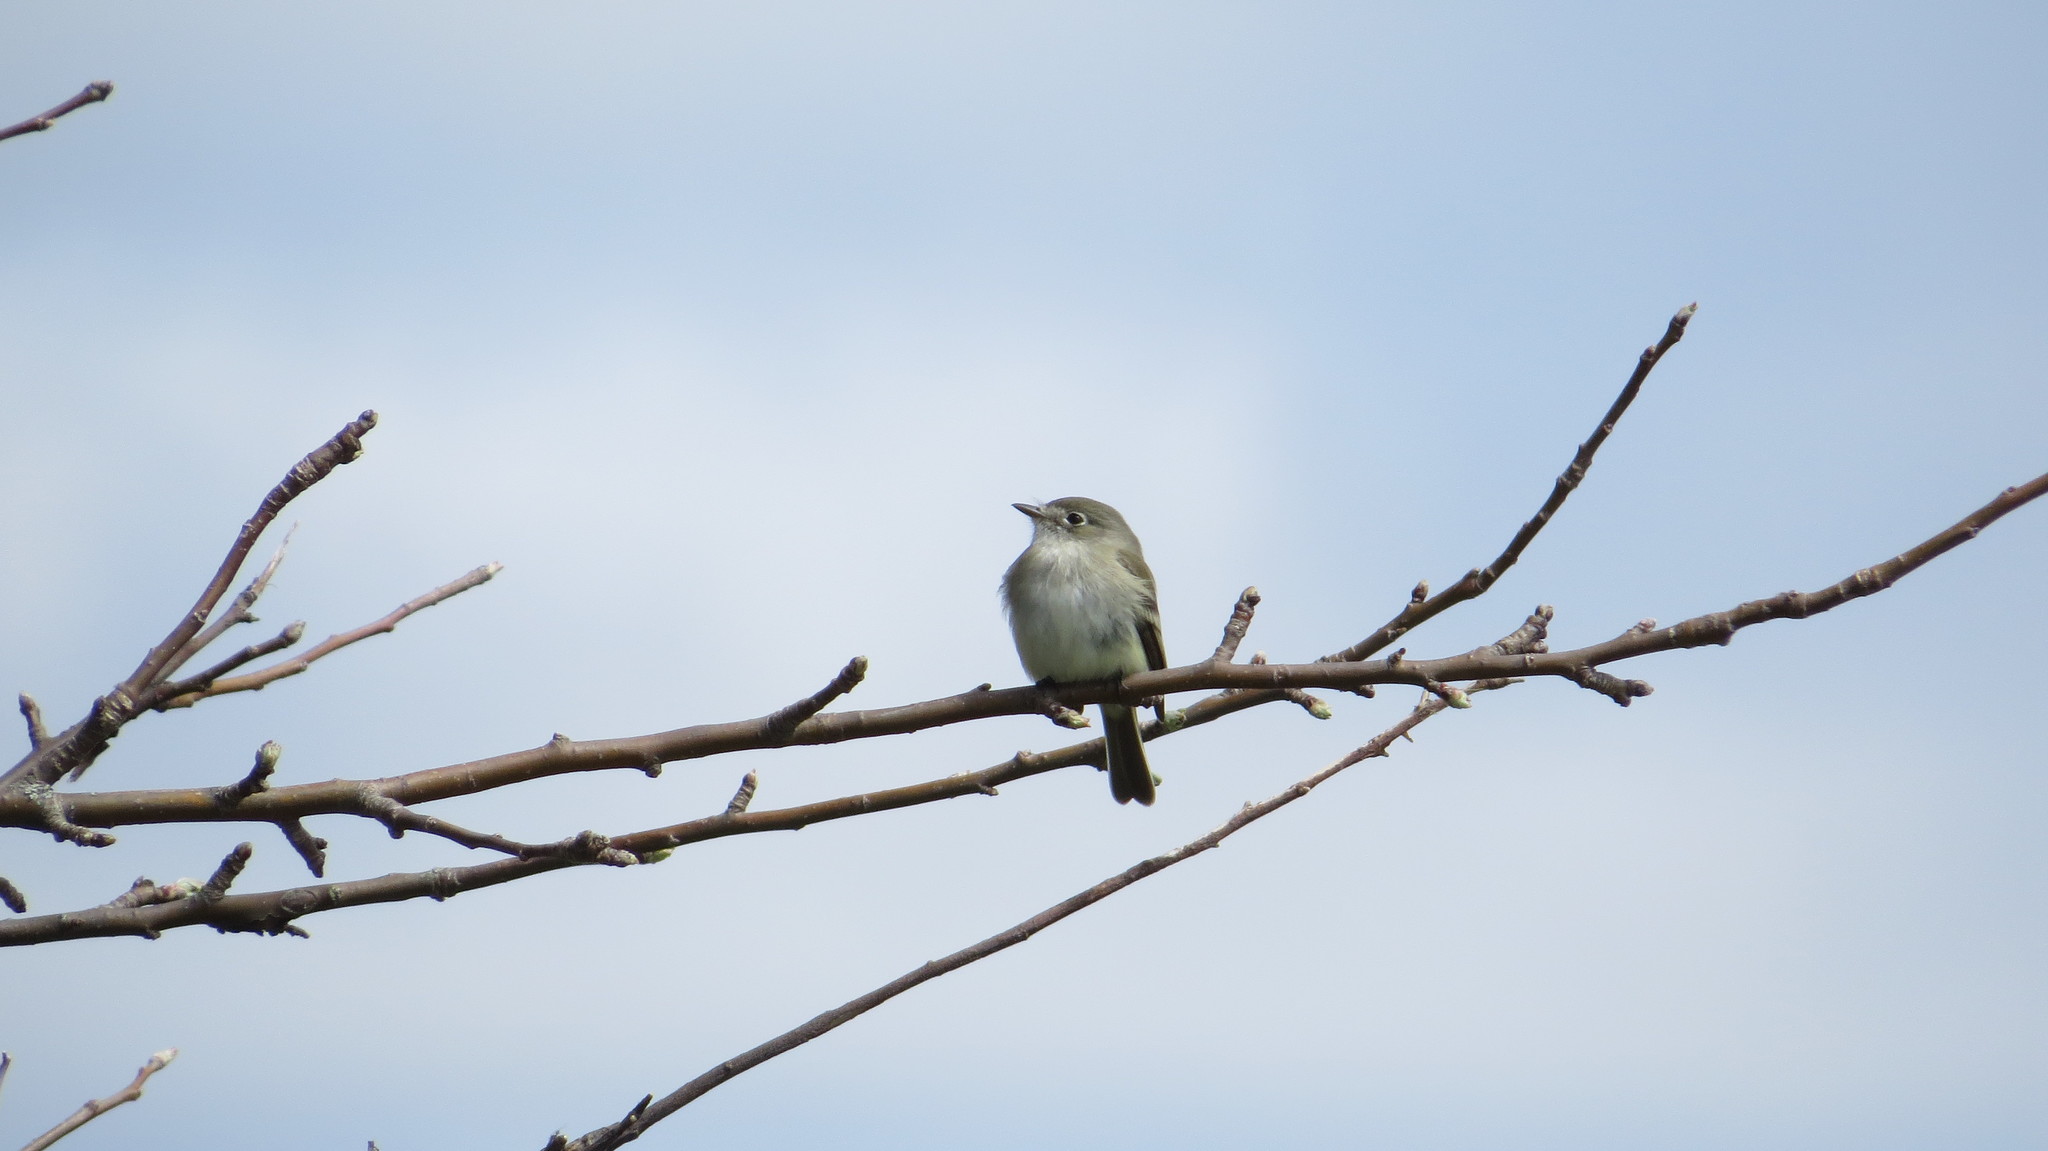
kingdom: Animalia
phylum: Chordata
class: Aves
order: Passeriformes
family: Tyrannidae
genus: Empidonax
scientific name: Empidonax minimus
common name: Least flycatcher
